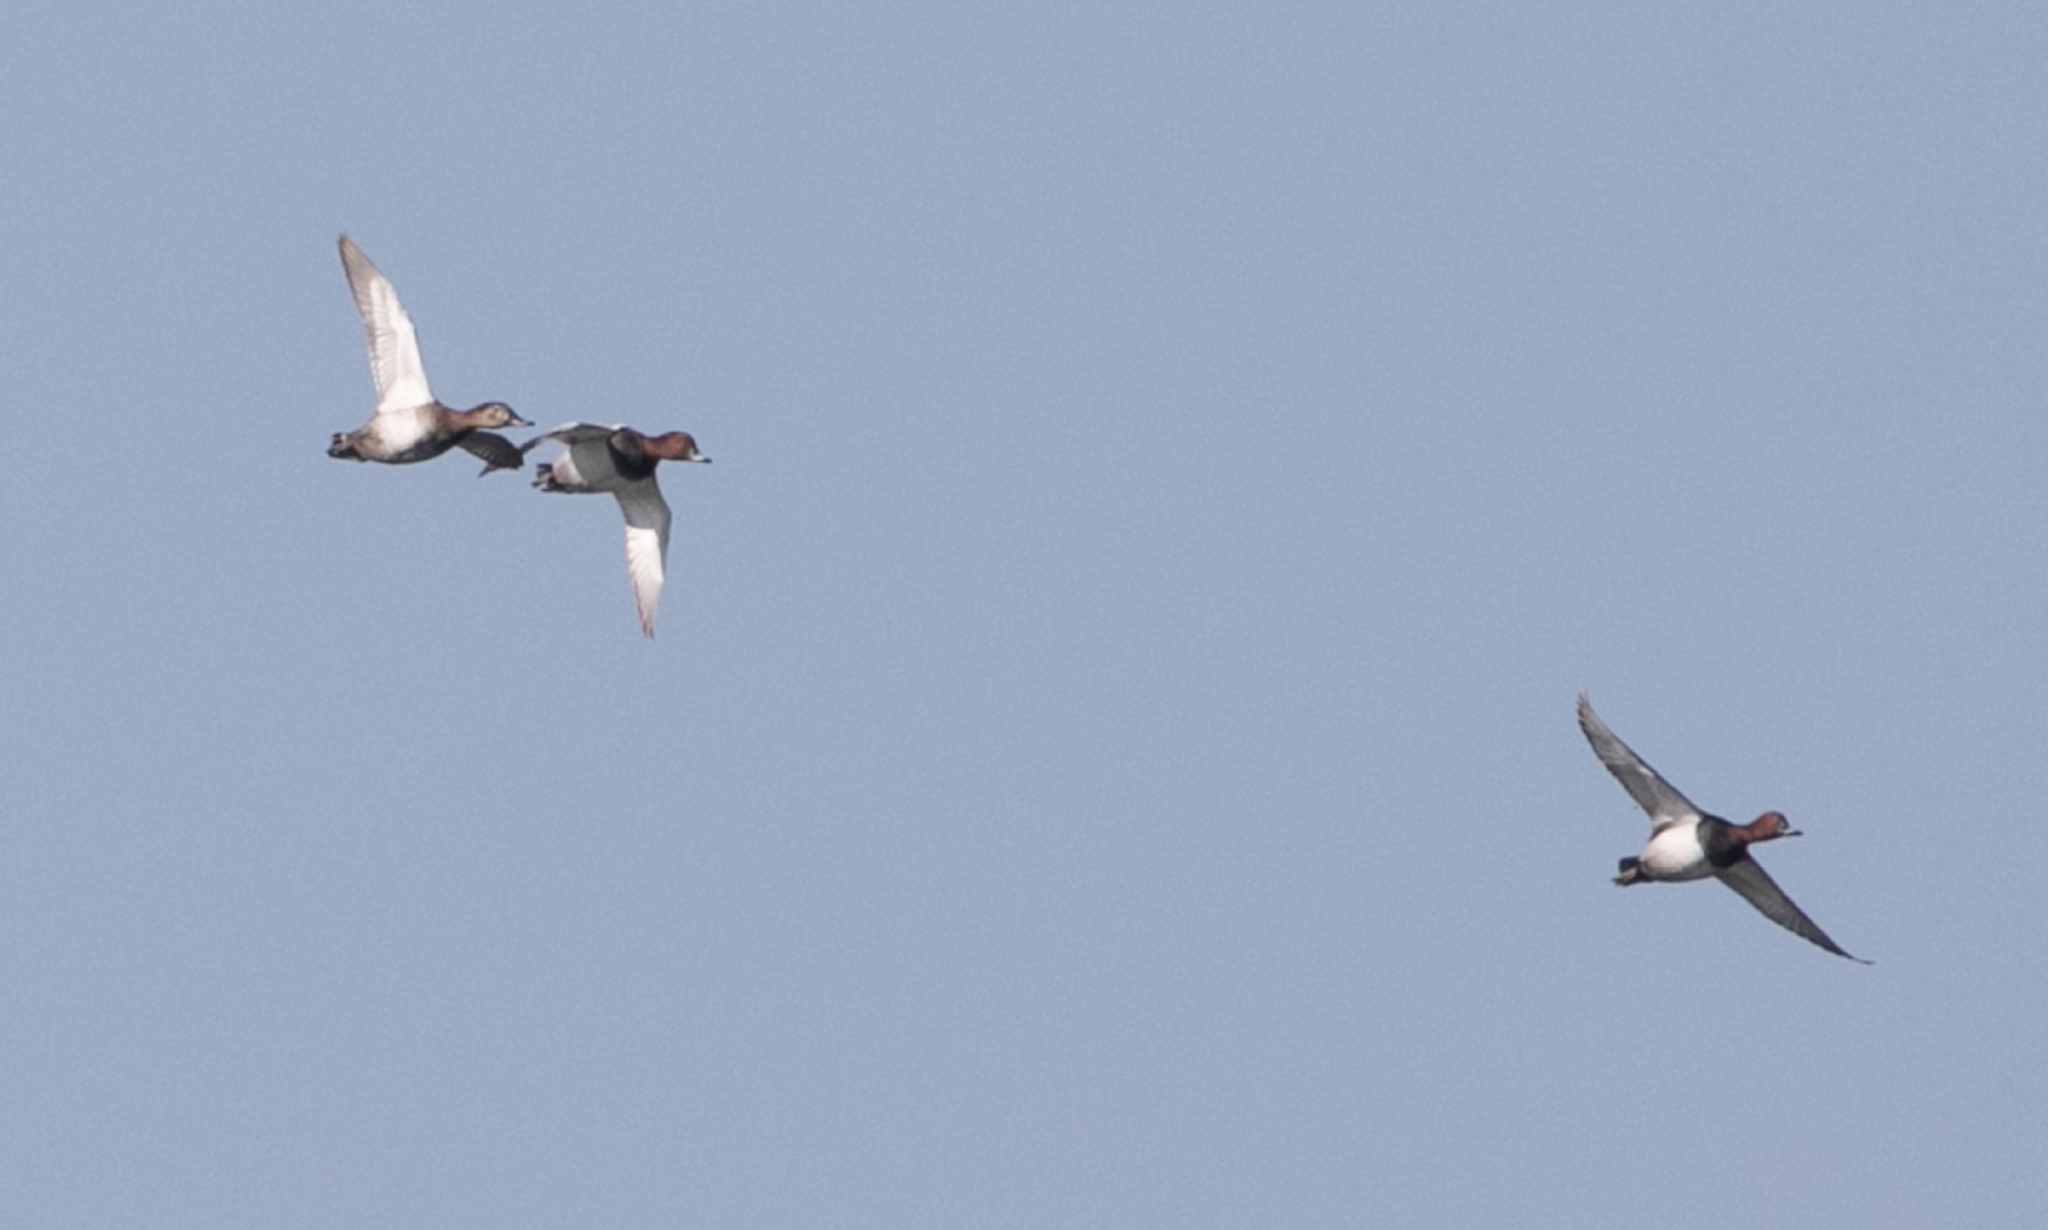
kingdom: Animalia
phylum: Chordata
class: Aves
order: Anseriformes
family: Anatidae
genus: Aythya
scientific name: Aythya ferina
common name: Common pochard
